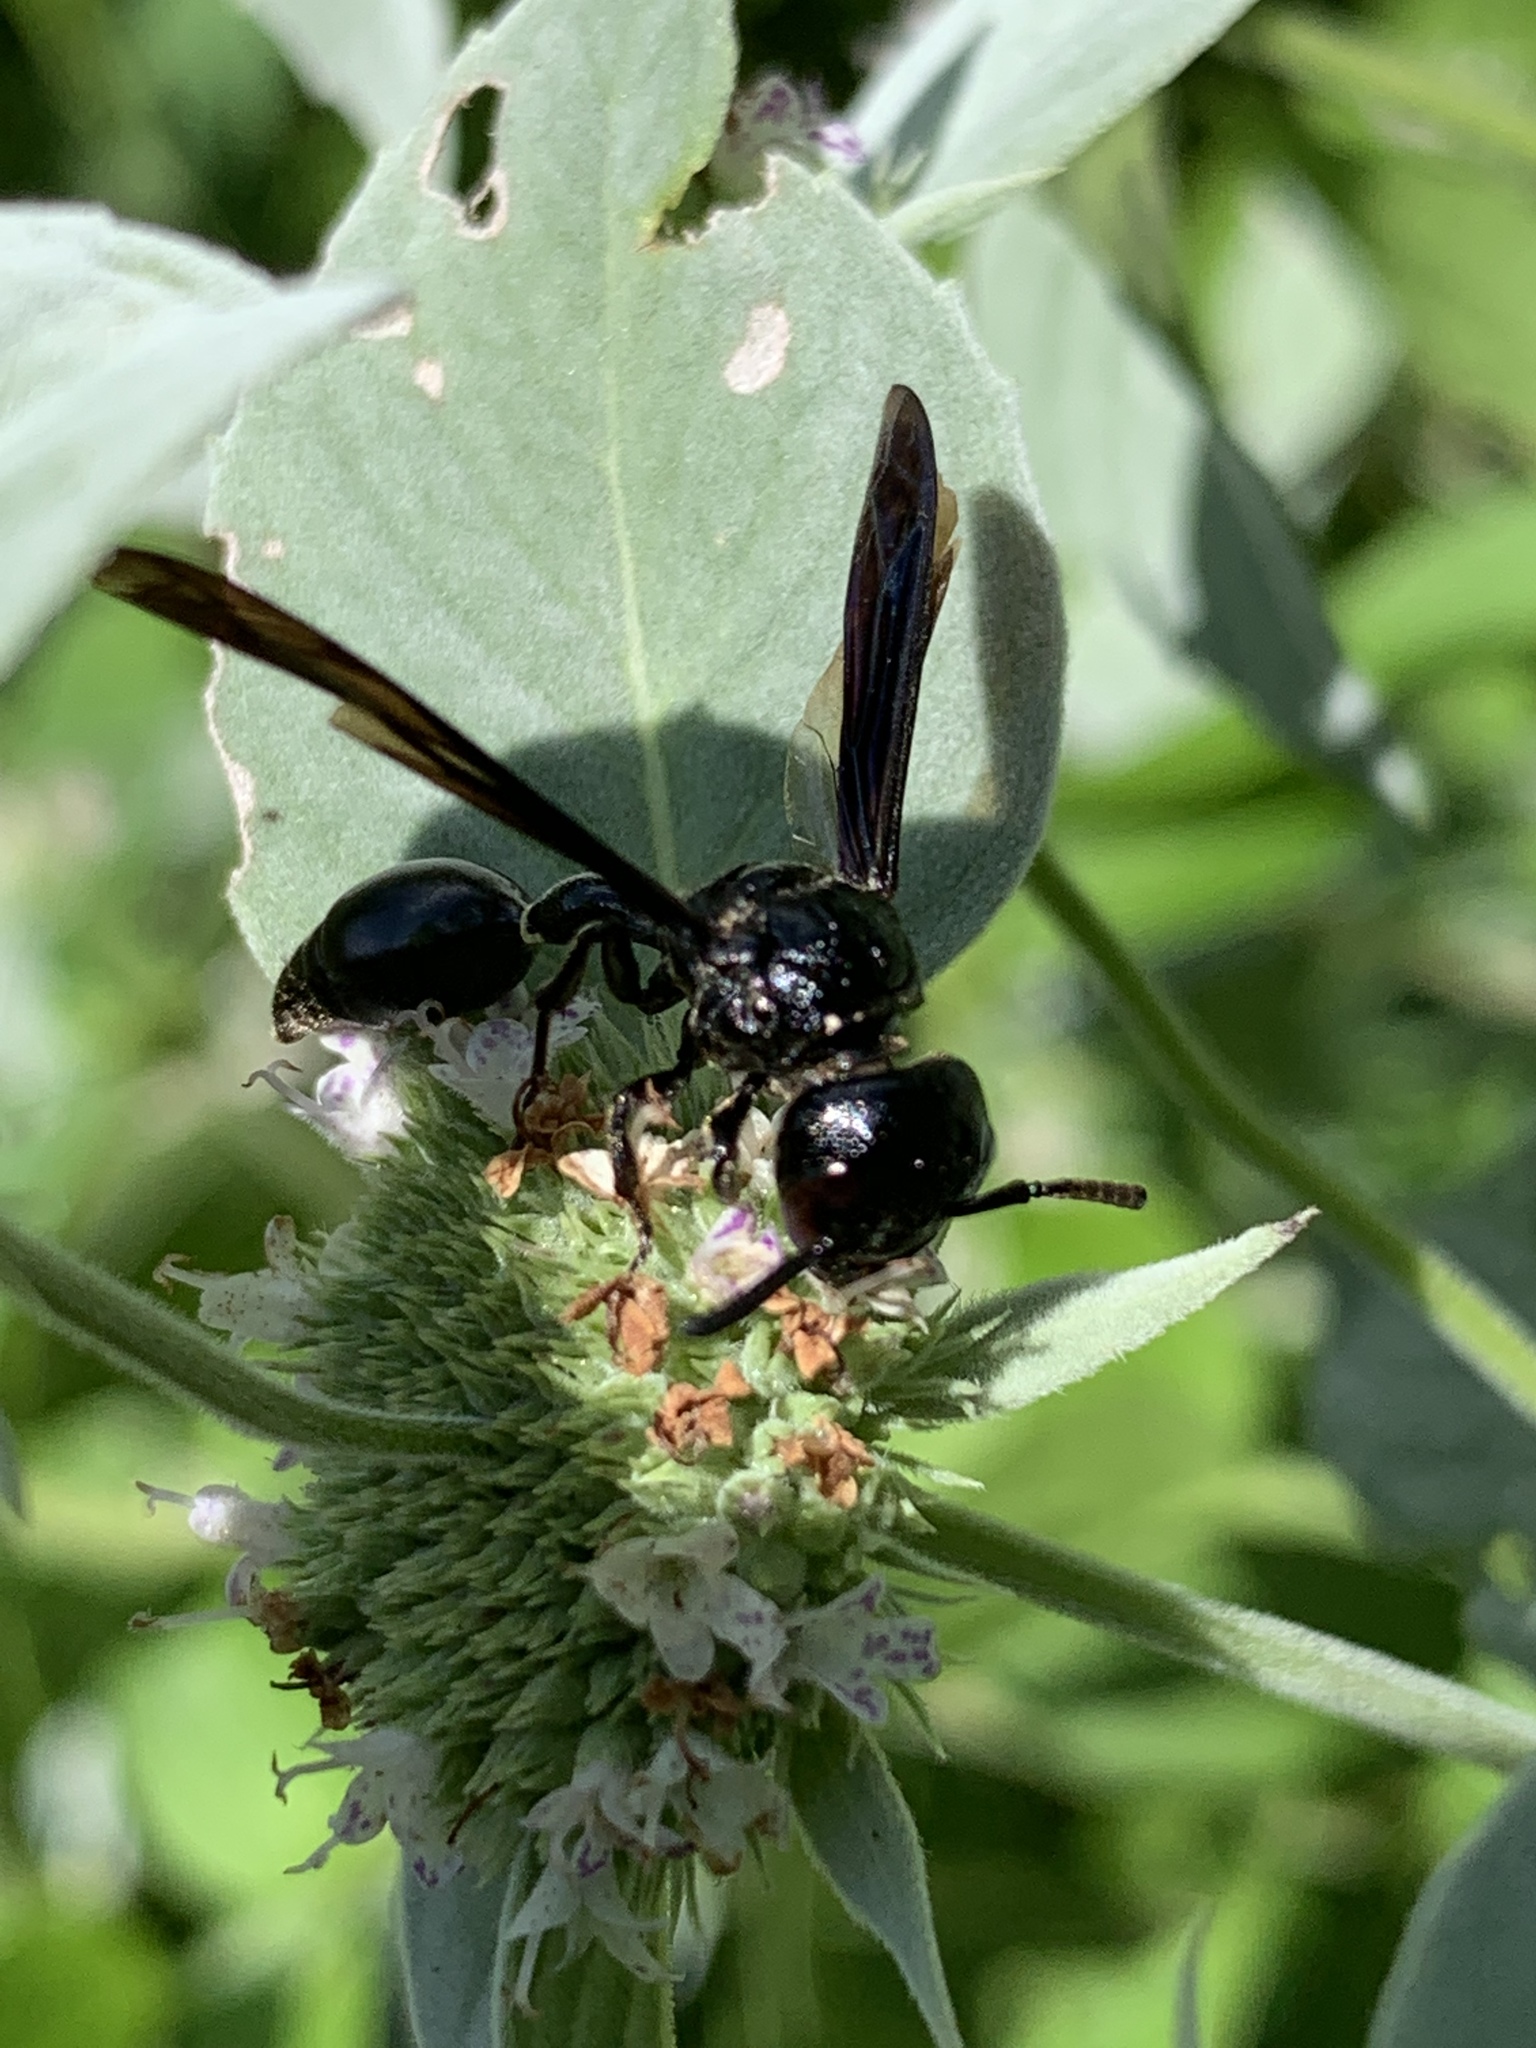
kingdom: Animalia
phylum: Arthropoda
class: Insecta
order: Hymenoptera
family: Eumenidae
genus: Zethus
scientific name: Zethus spinipes
